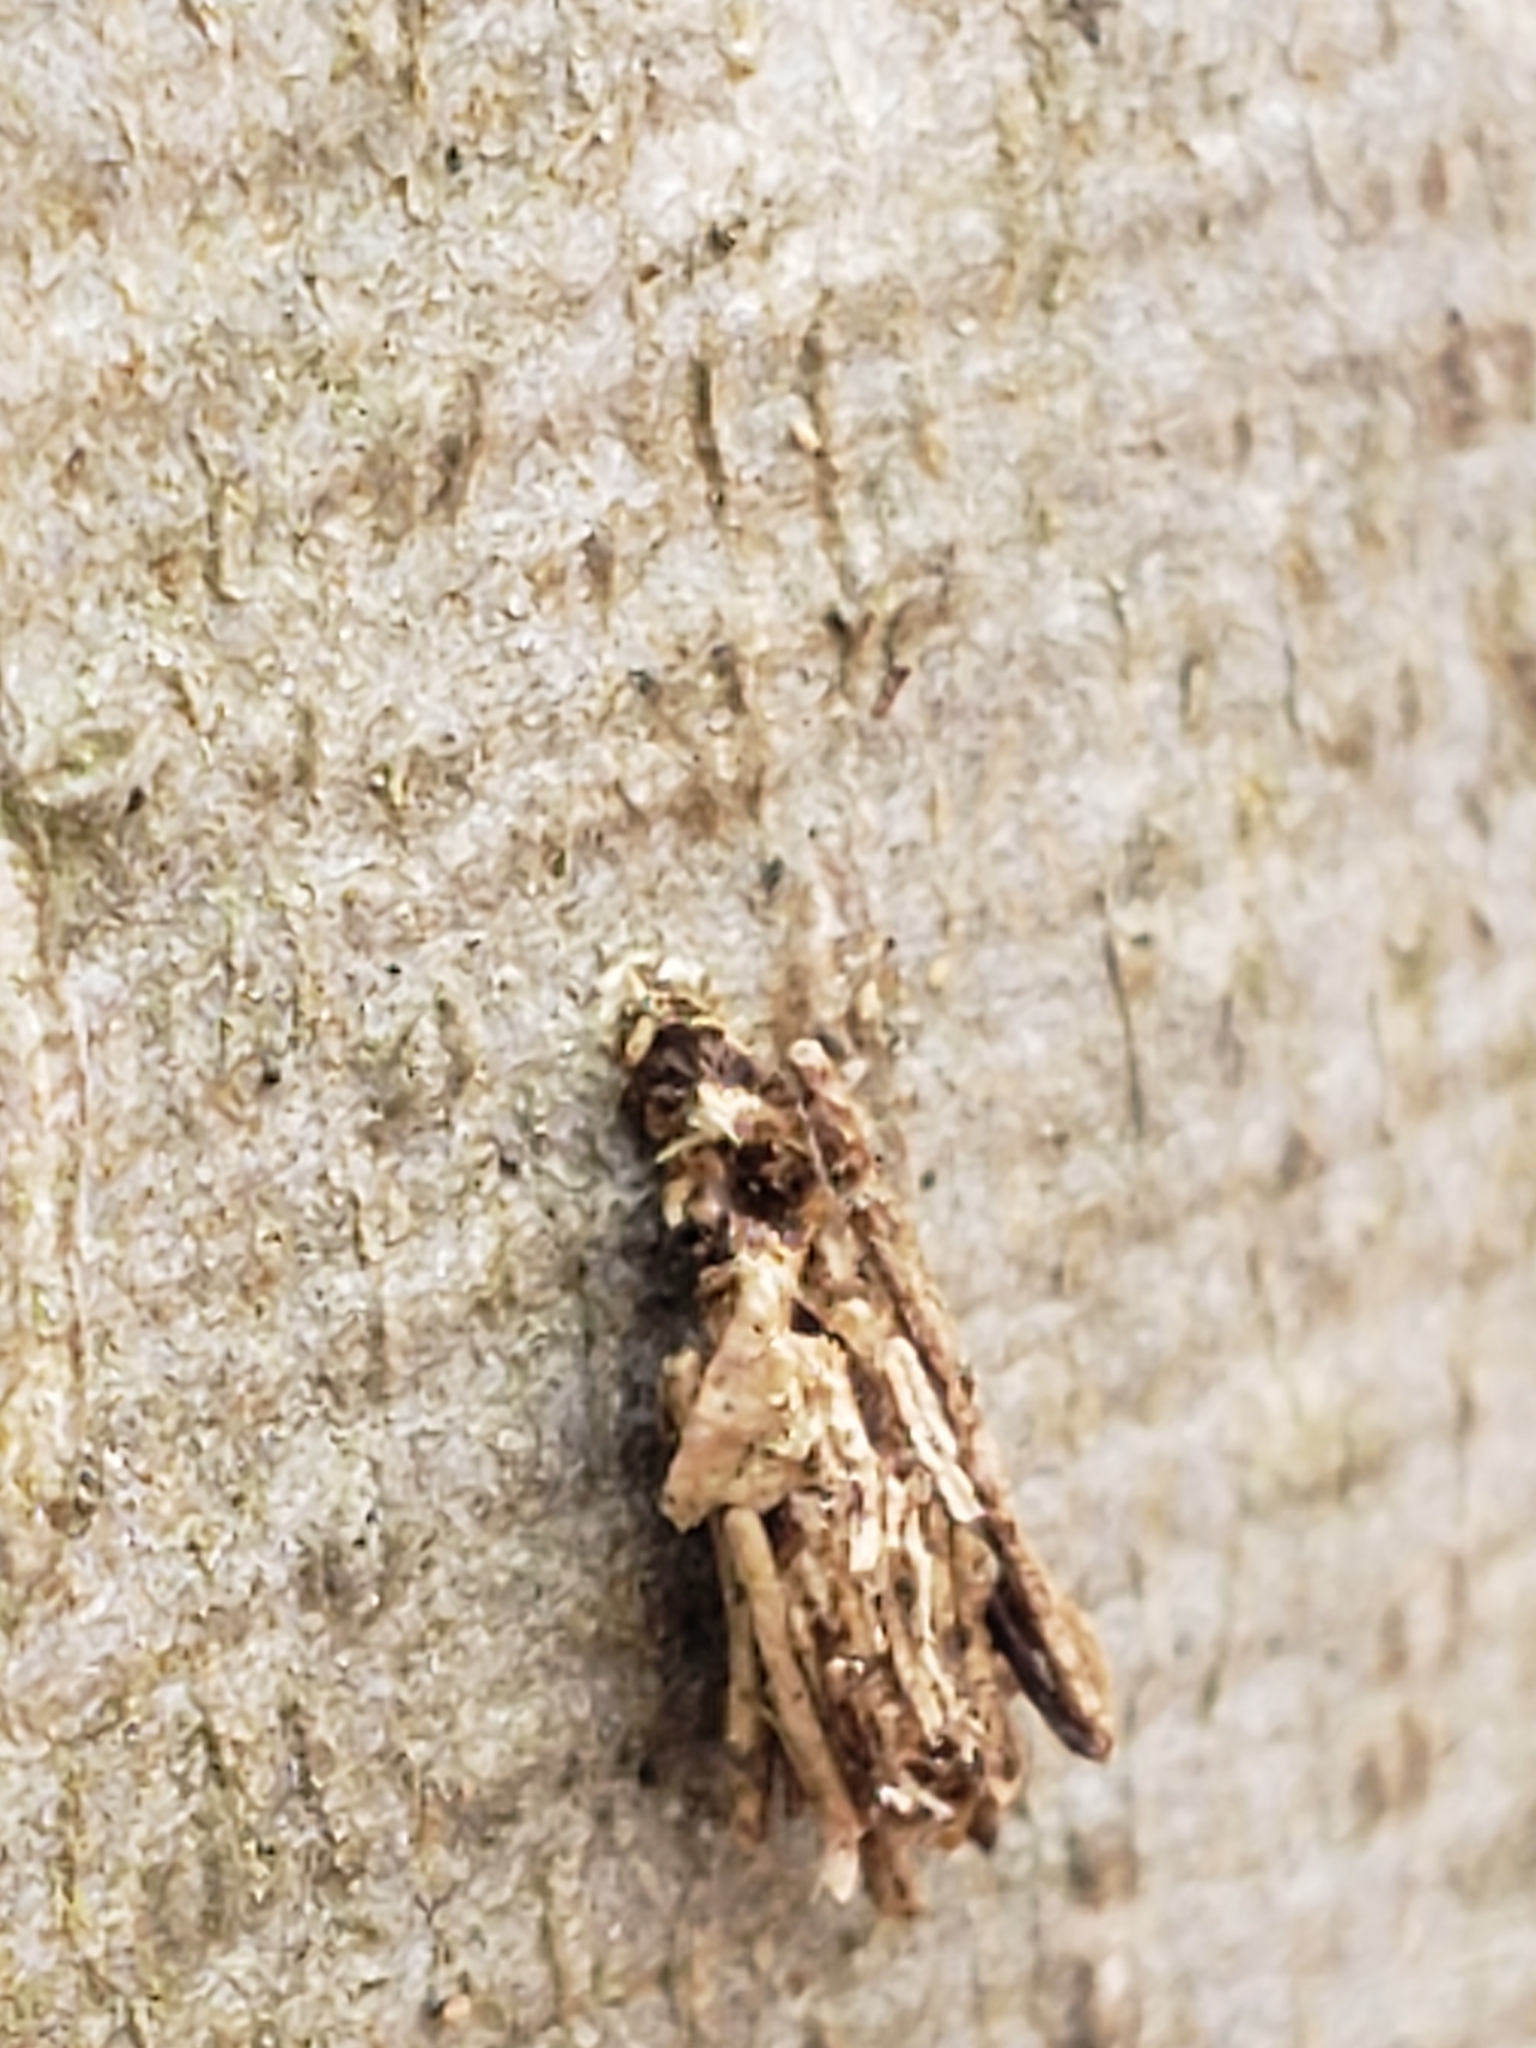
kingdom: Animalia
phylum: Arthropoda
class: Insecta
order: Lepidoptera
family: Psychidae
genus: Psyche
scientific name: Psyche casta
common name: Common sweep
